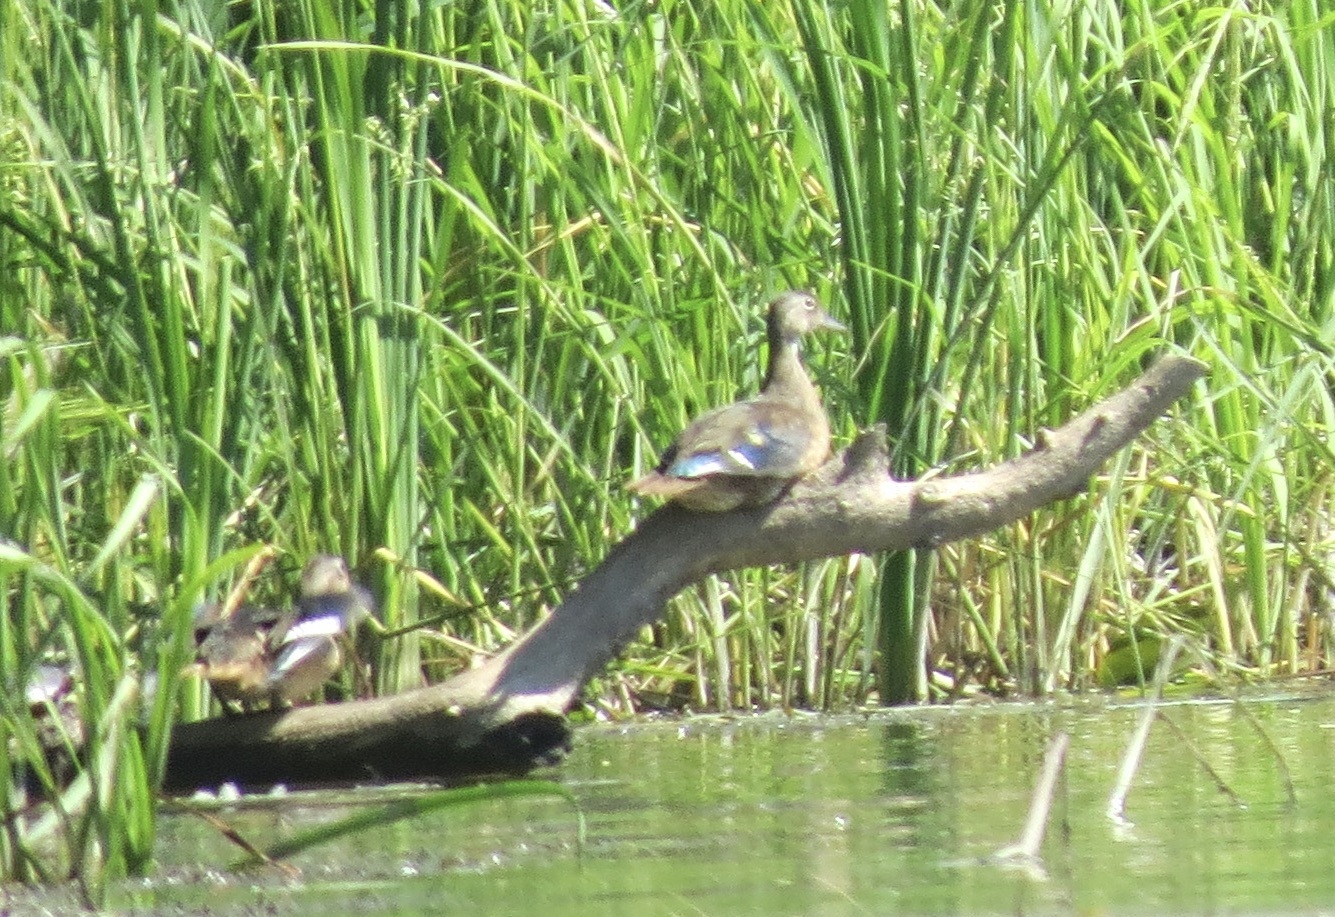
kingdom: Animalia
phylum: Chordata
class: Aves
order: Anseriformes
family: Anatidae
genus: Aix
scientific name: Aix sponsa
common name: Wood duck
